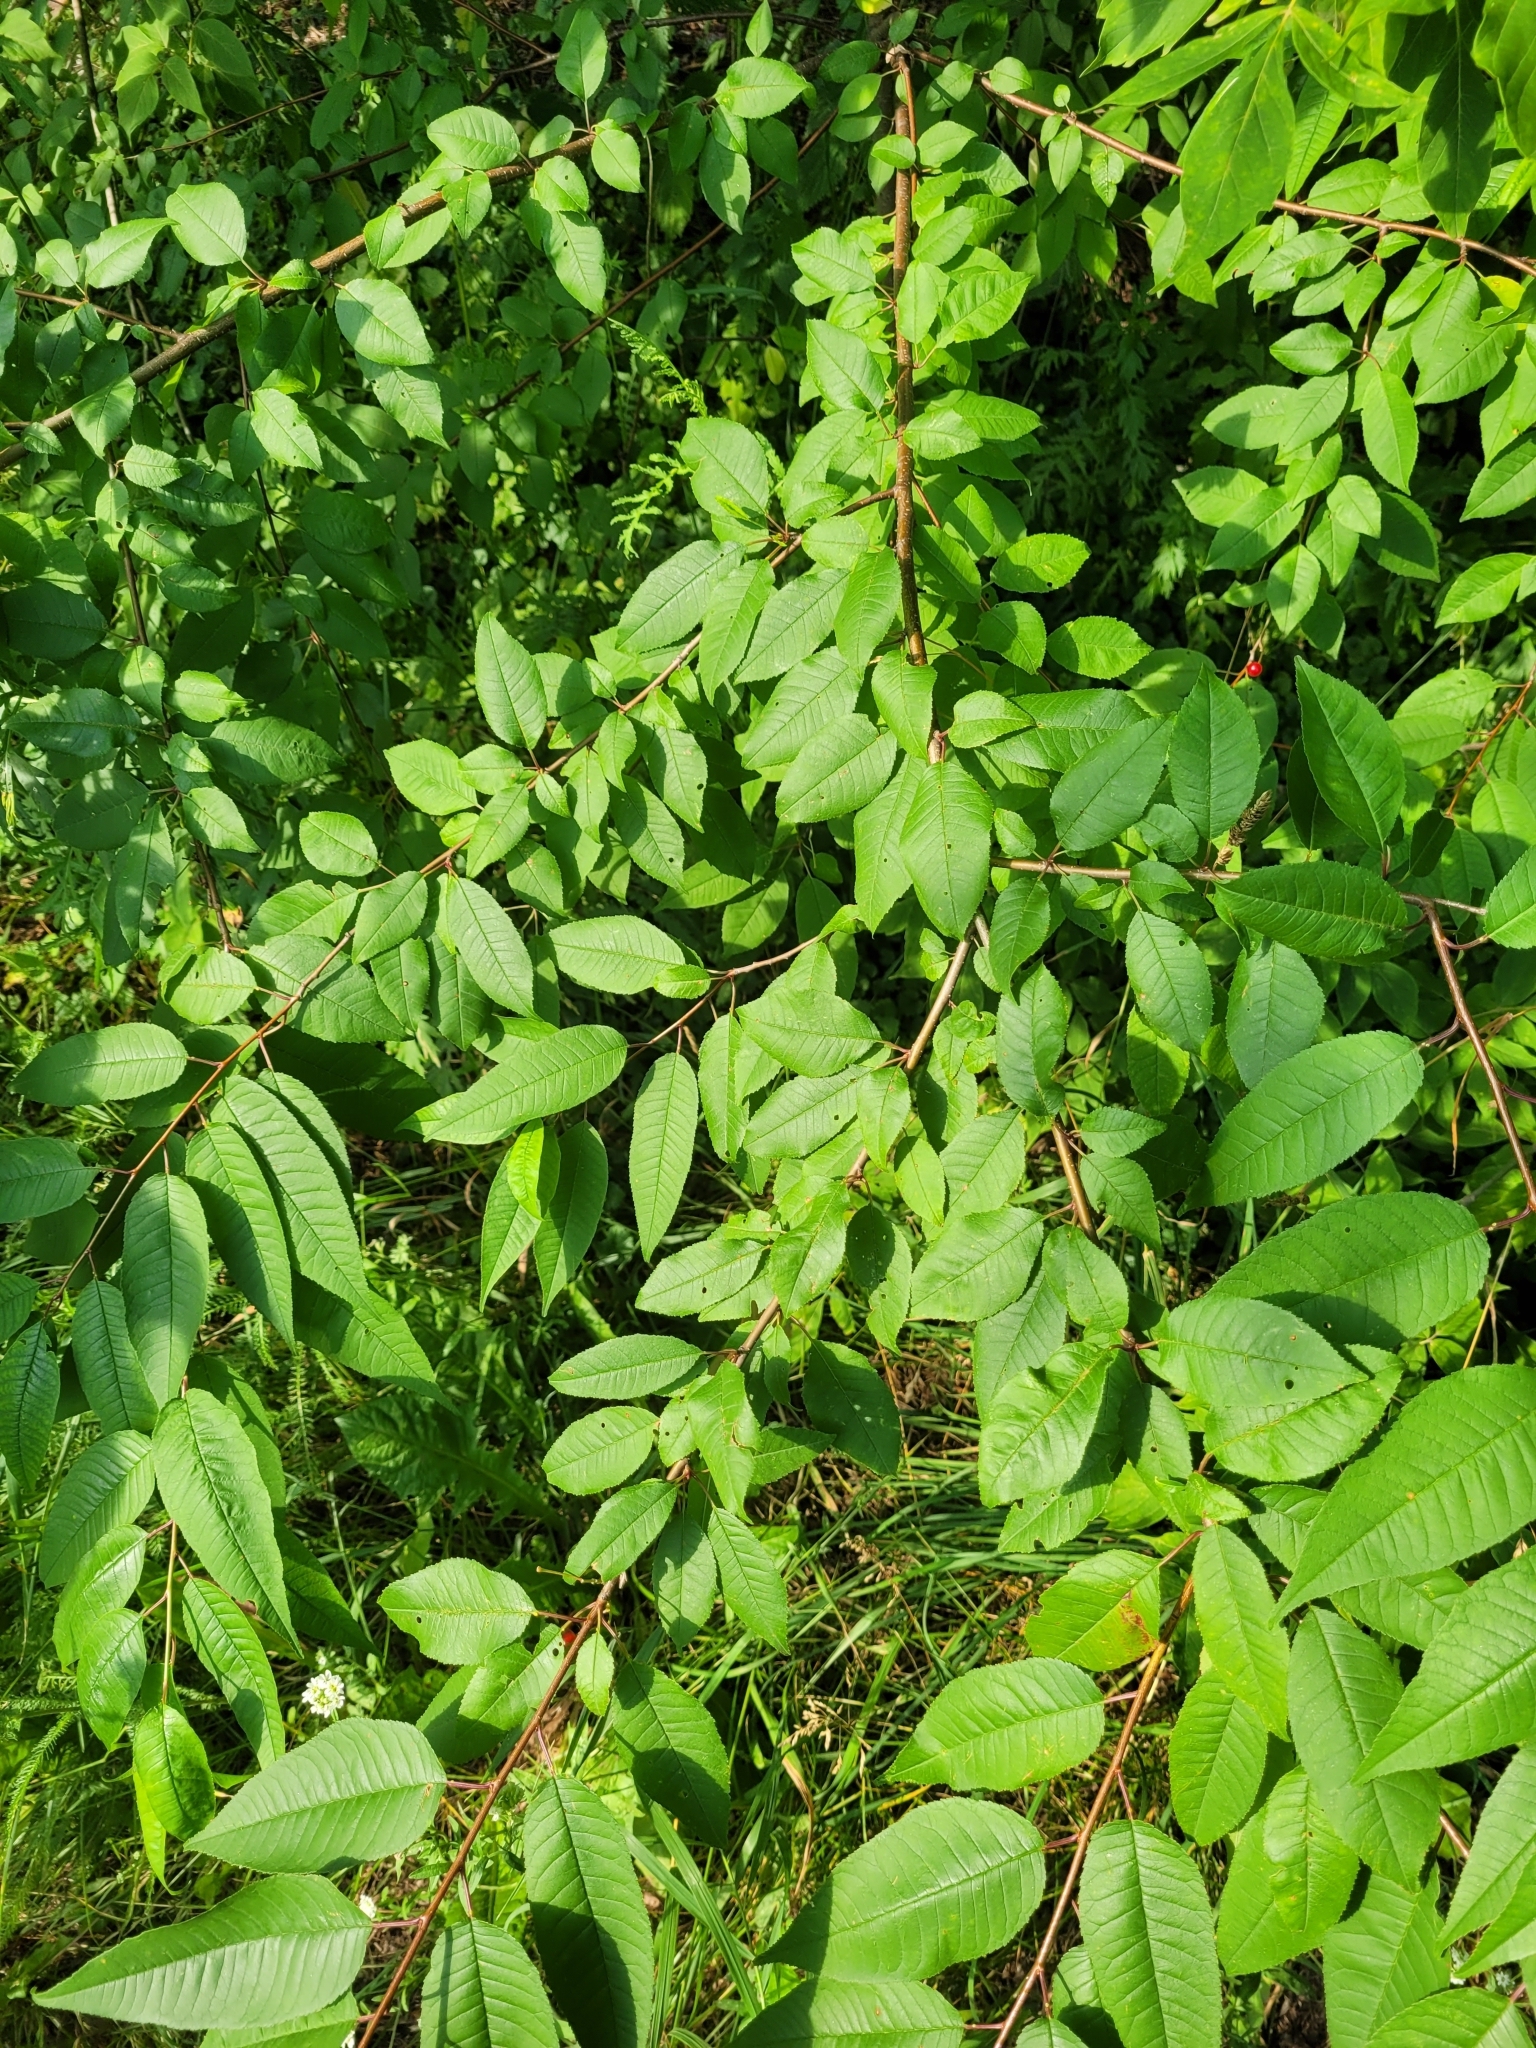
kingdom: Plantae
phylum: Tracheophyta
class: Magnoliopsida
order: Rosales
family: Rosaceae
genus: Prunus
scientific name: Prunus pensylvanica
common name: Pin cherry
